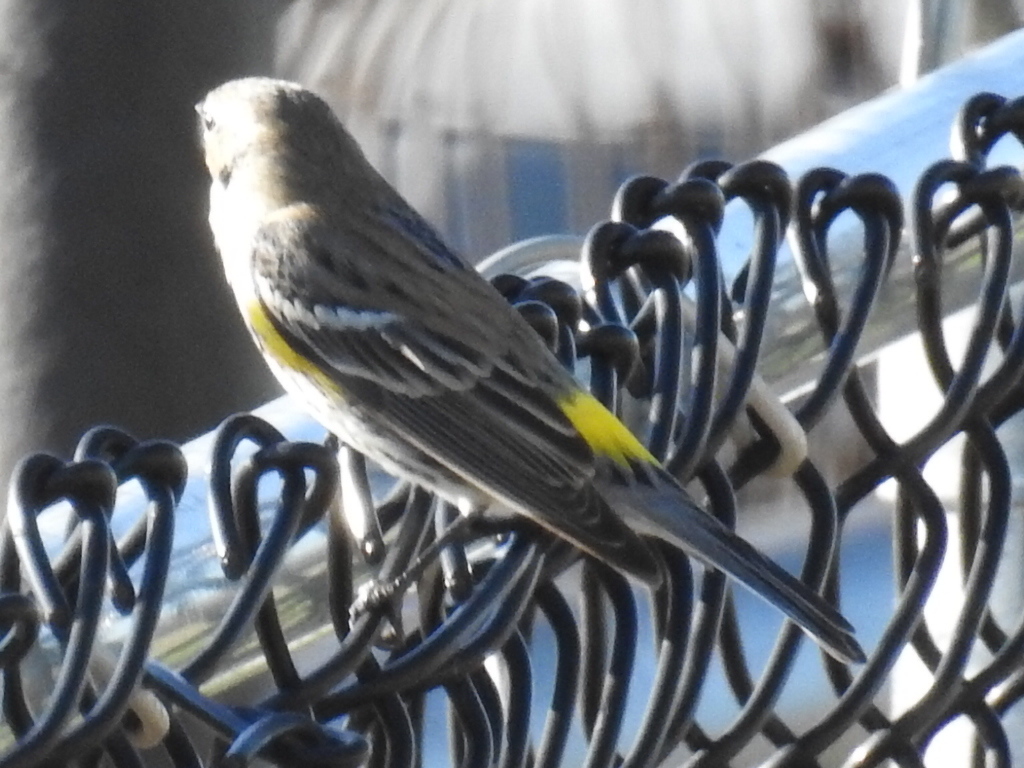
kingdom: Animalia
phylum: Chordata
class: Aves
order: Passeriformes
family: Parulidae
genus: Setophaga
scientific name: Setophaga coronata
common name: Myrtle warbler
